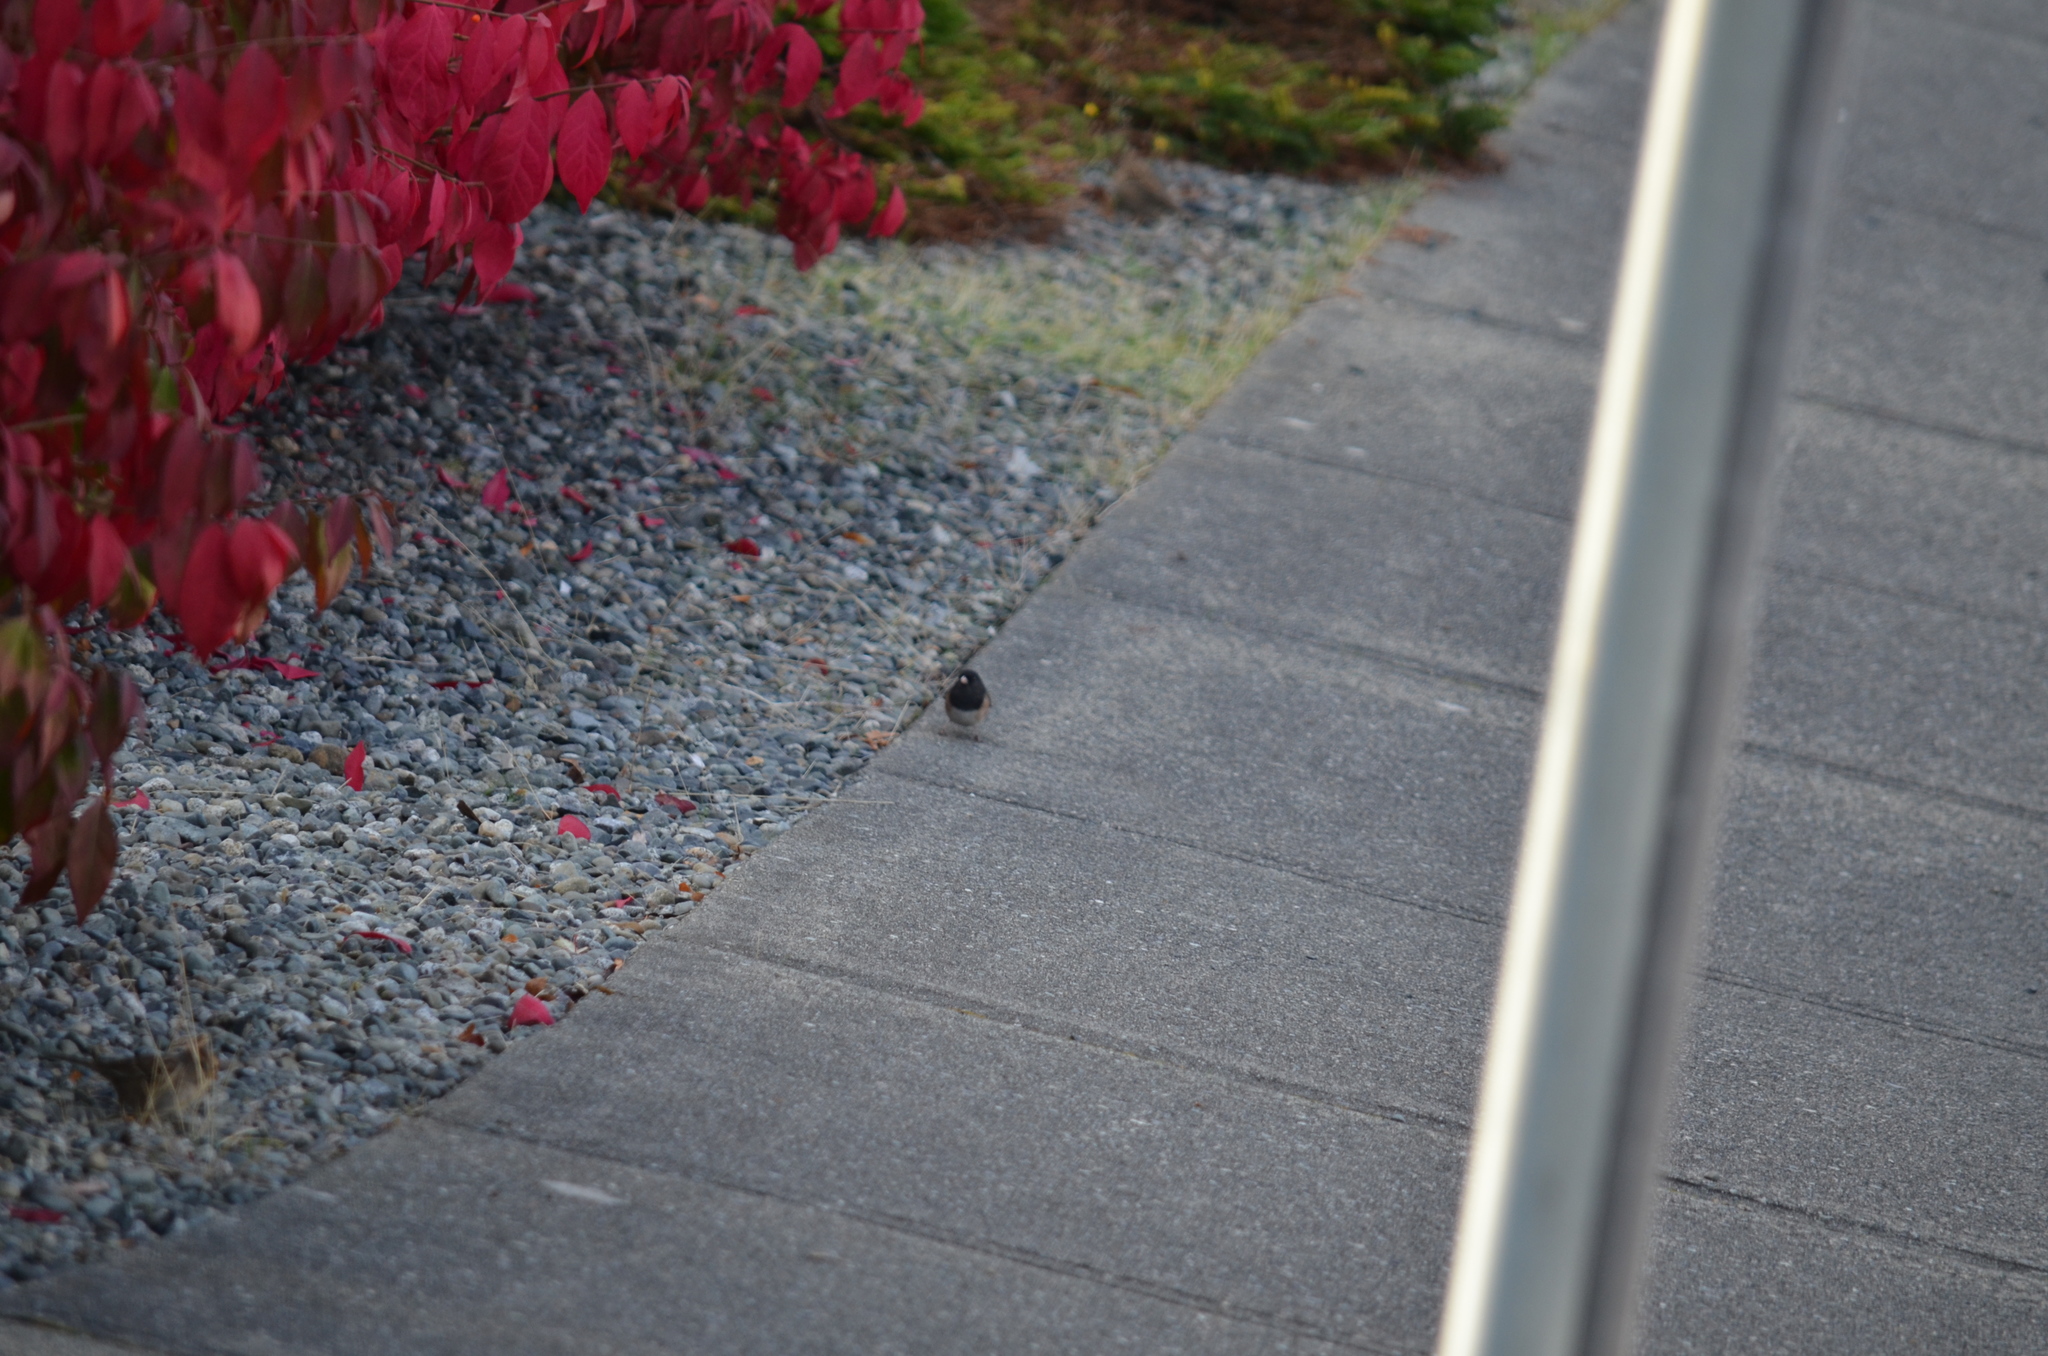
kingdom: Animalia
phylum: Chordata
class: Aves
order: Passeriformes
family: Passerellidae
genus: Junco
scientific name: Junco hyemalis
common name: Dark-eyed junco
